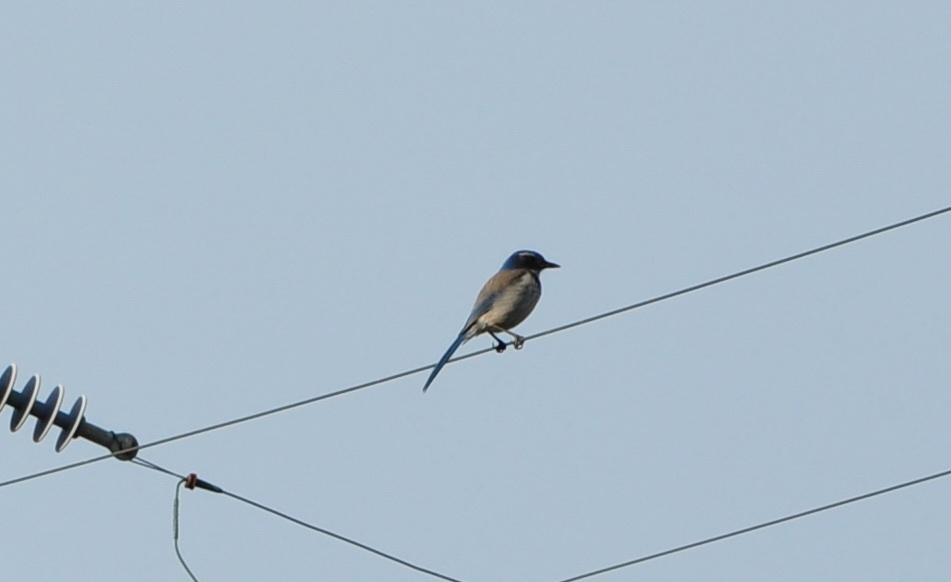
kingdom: Animalia
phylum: Chordata
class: Aves
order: Passeriformes
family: Corvidae
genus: Aphelocoma
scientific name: Aphelocoma californica
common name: California scrub-jay
